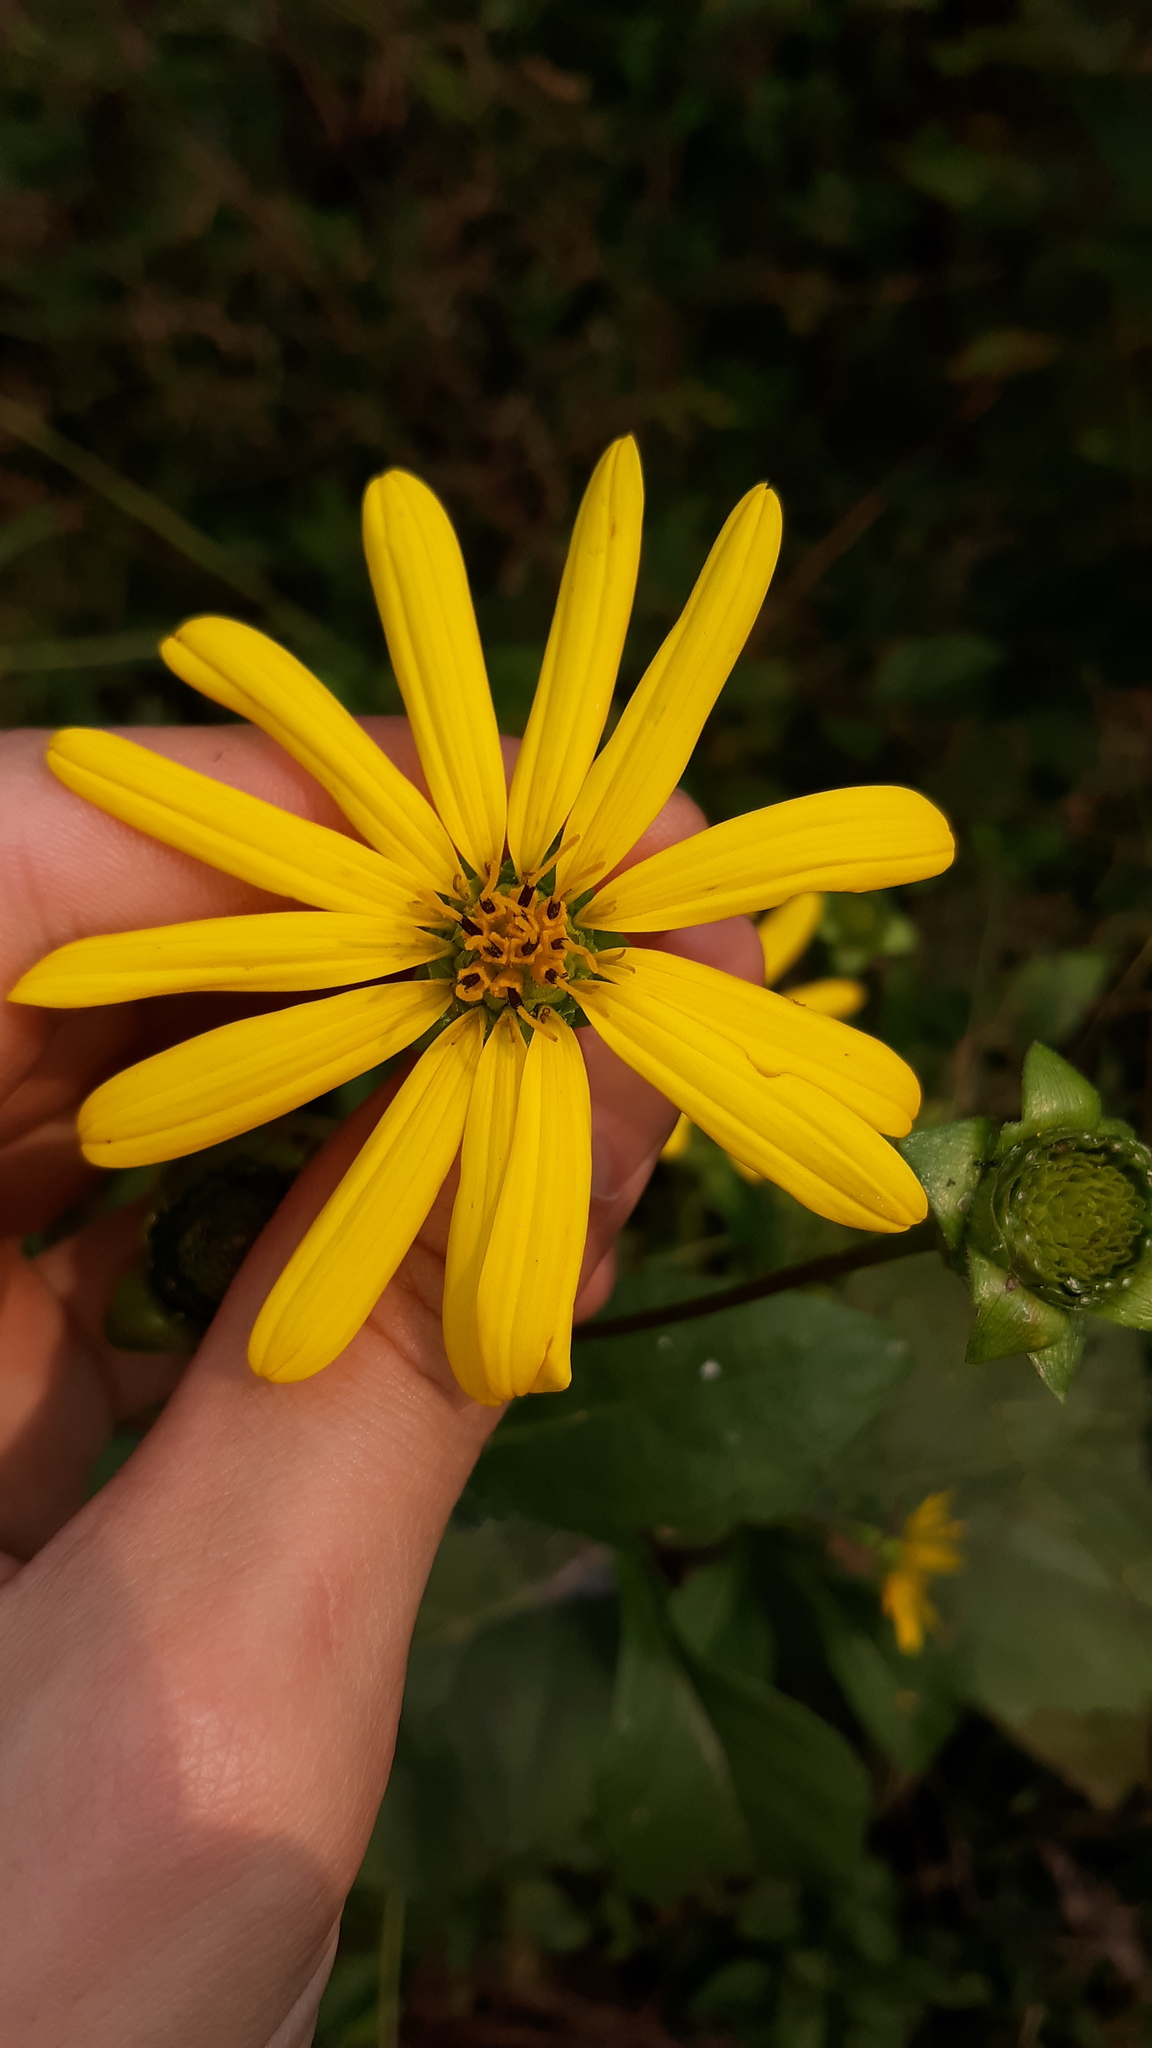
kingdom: Plantae
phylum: Tracheophyta
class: Magnoliopsida
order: Asterales
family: Asteraceae
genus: Silphium
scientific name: Silphium perfoliatum
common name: Cup-plant
